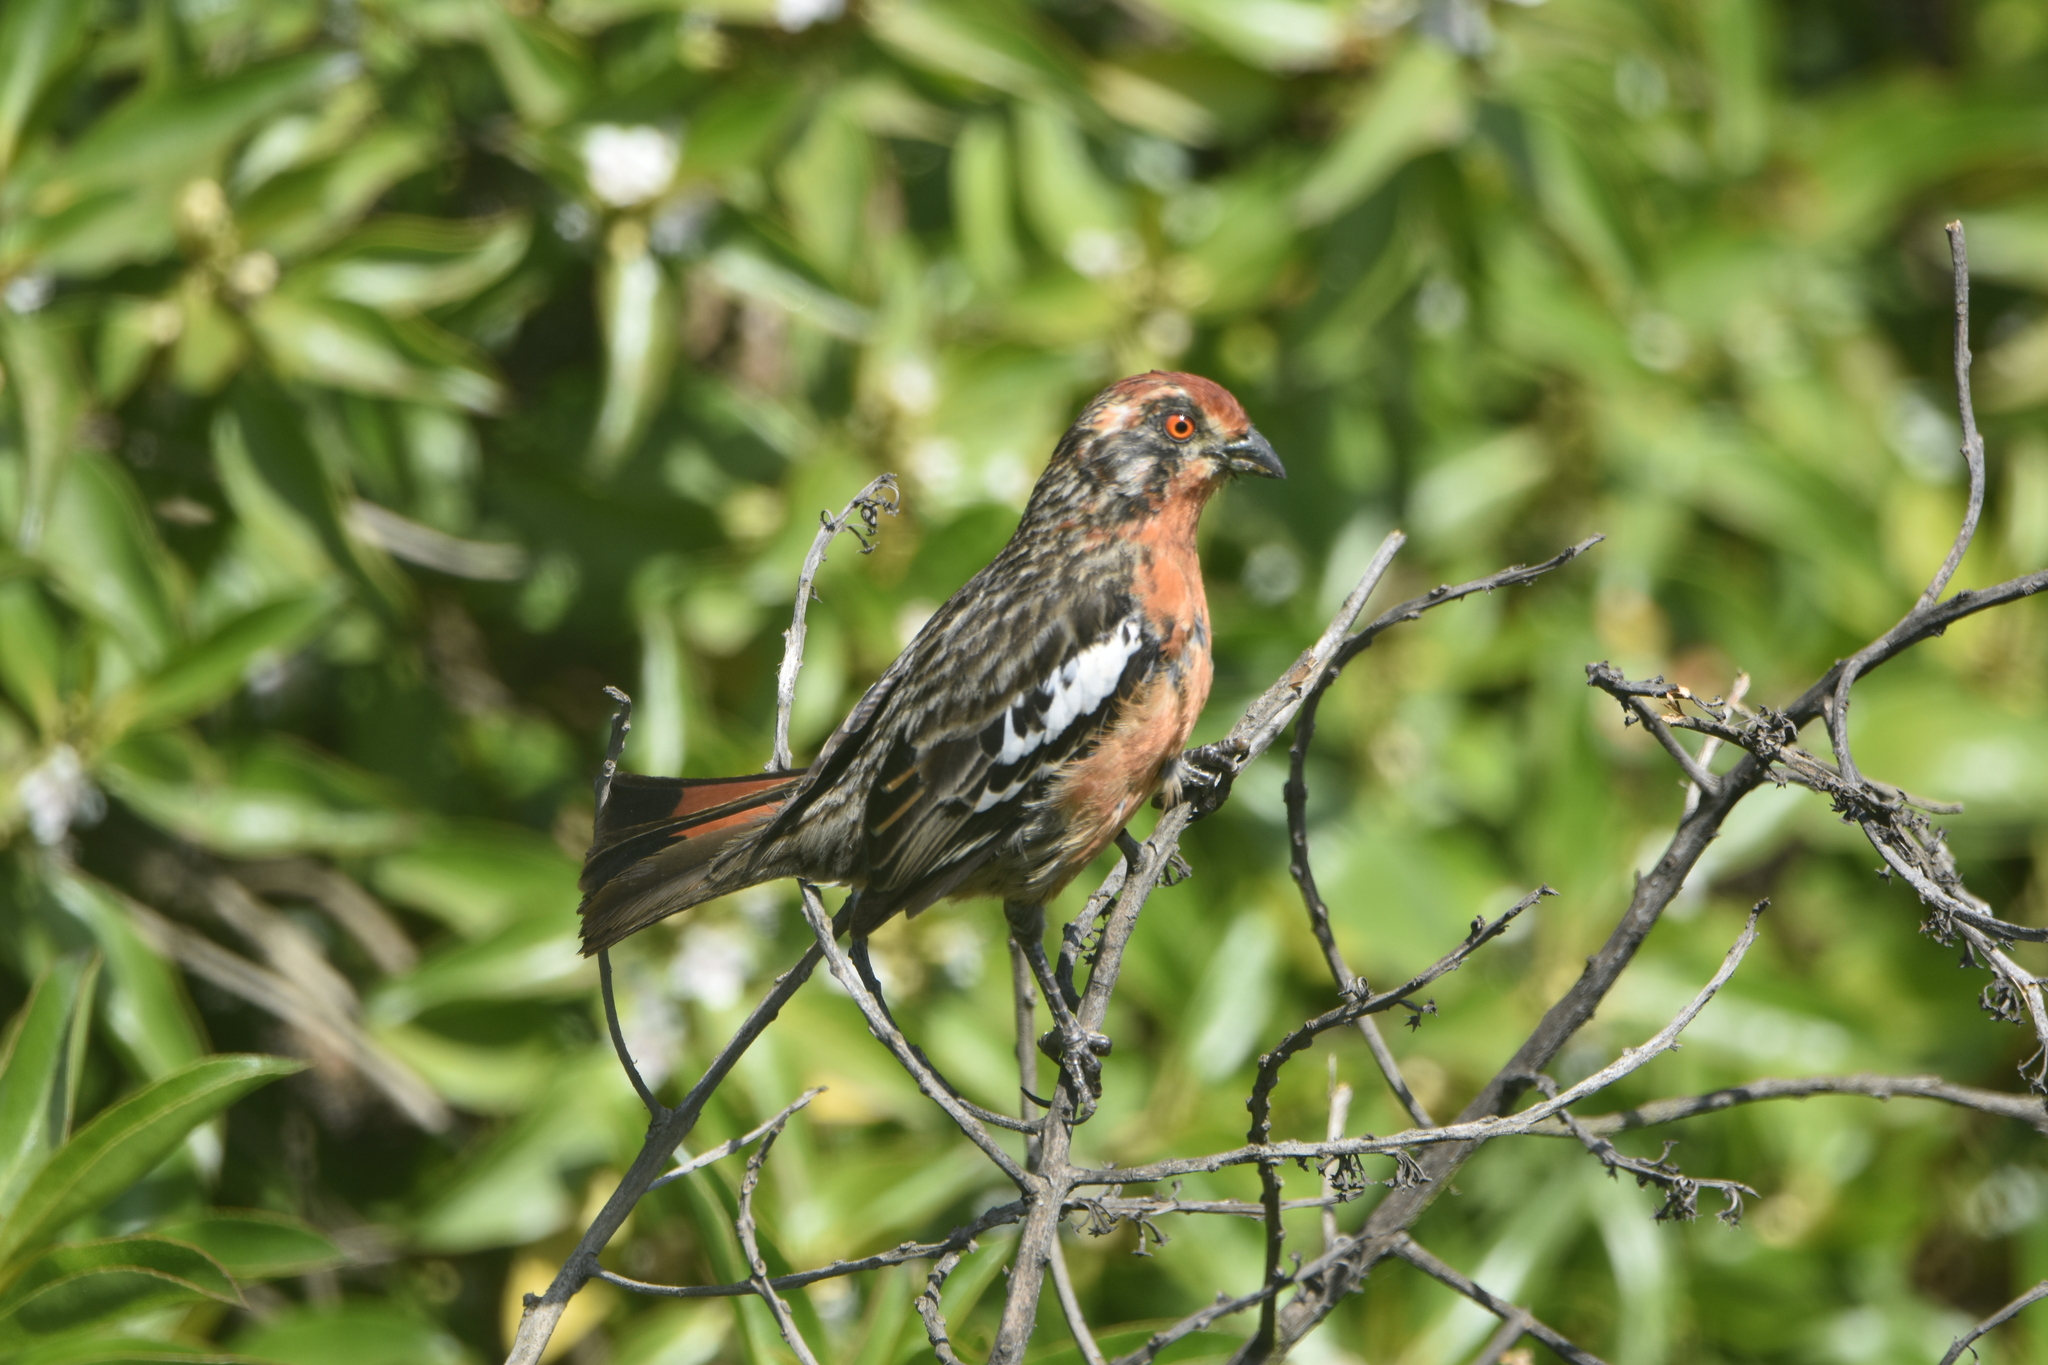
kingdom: Animalia
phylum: Chordata
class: Aves
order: Passeriformes
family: Cotingidae
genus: Phytotoma
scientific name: Phytotoma rara
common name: Rufous-tailed plantcutter
